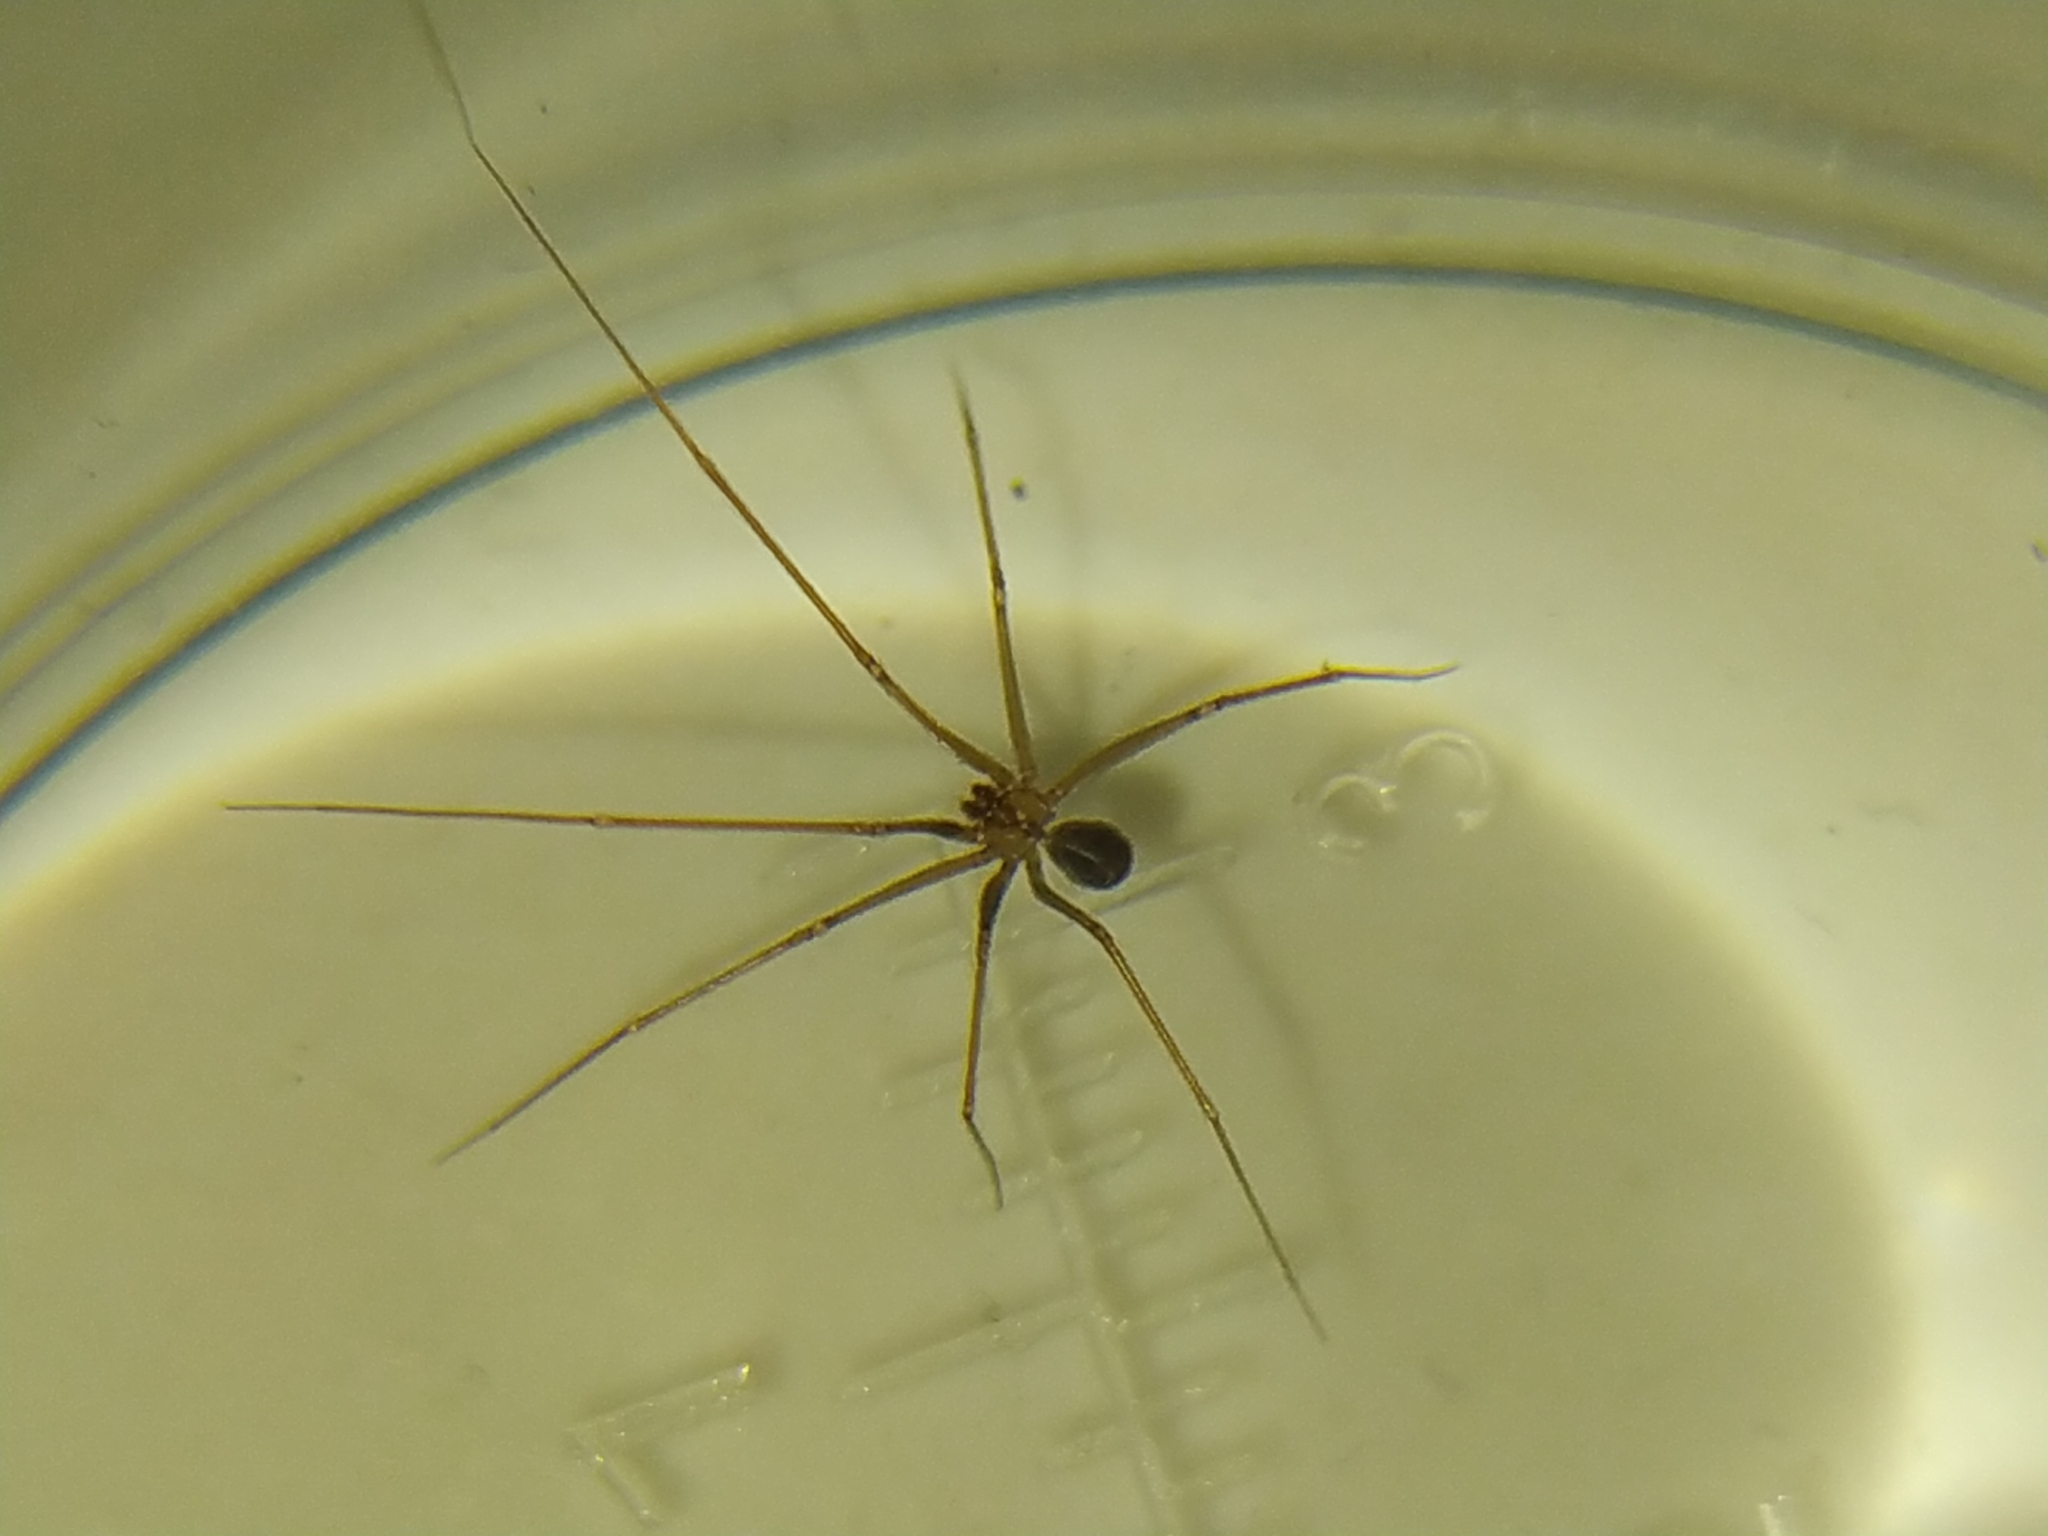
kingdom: Animalia
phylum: Arthropoda
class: Arachnida
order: Araneae
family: Pholcidae
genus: Psilochorus
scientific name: Psilochorus simoni
